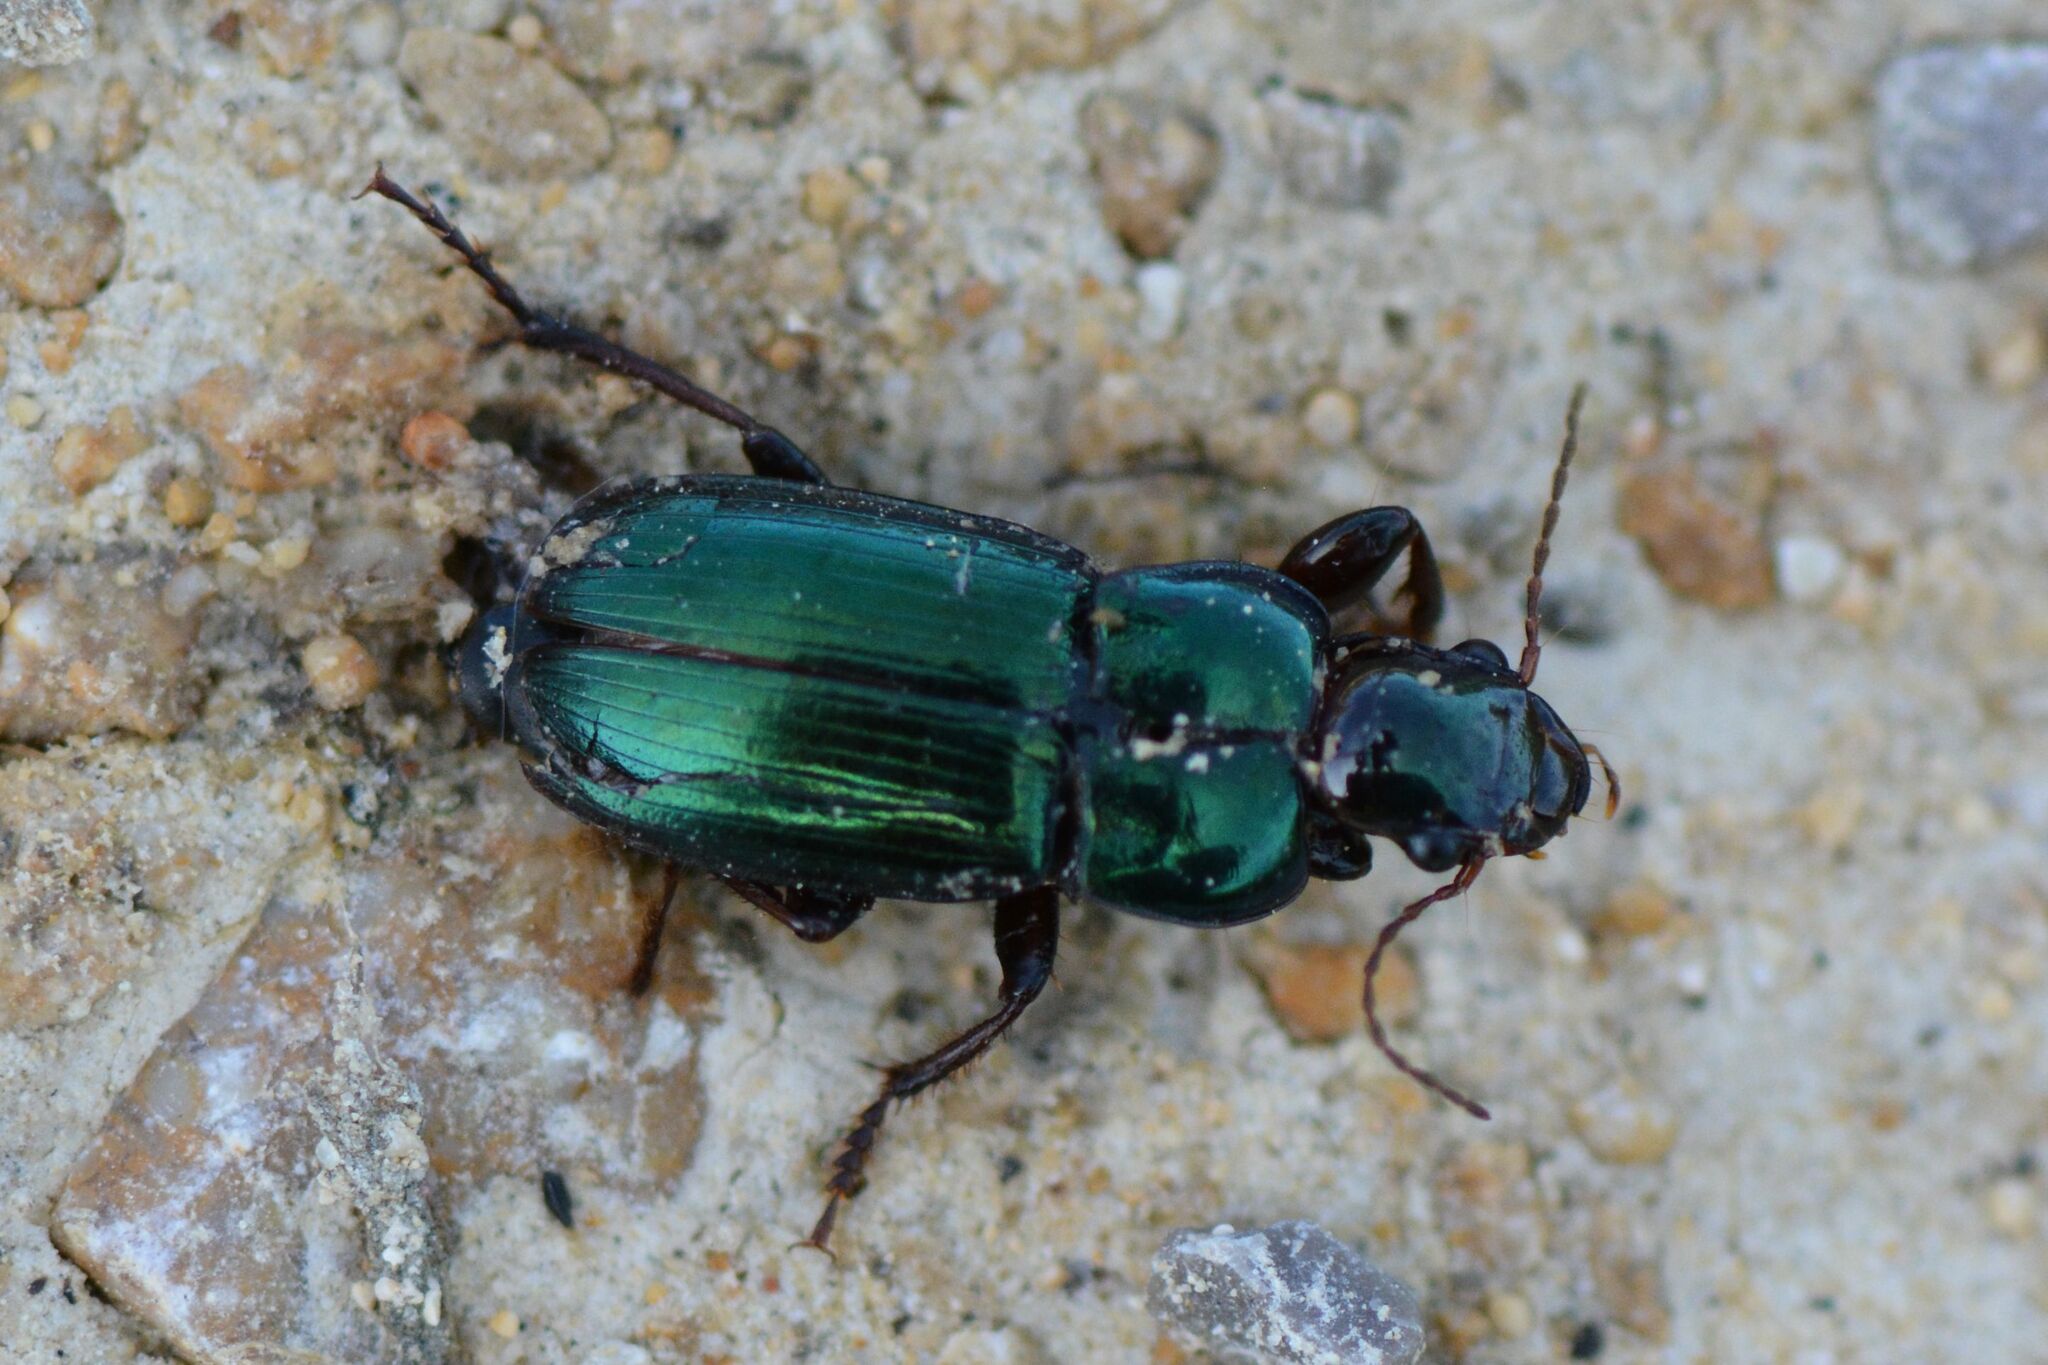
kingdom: Animalia
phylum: Arthropoda
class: Insecta
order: Coleoptera
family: Carabidae
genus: Harpalus
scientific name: Harpalus affinis
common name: Polychrome harp ground beetle
